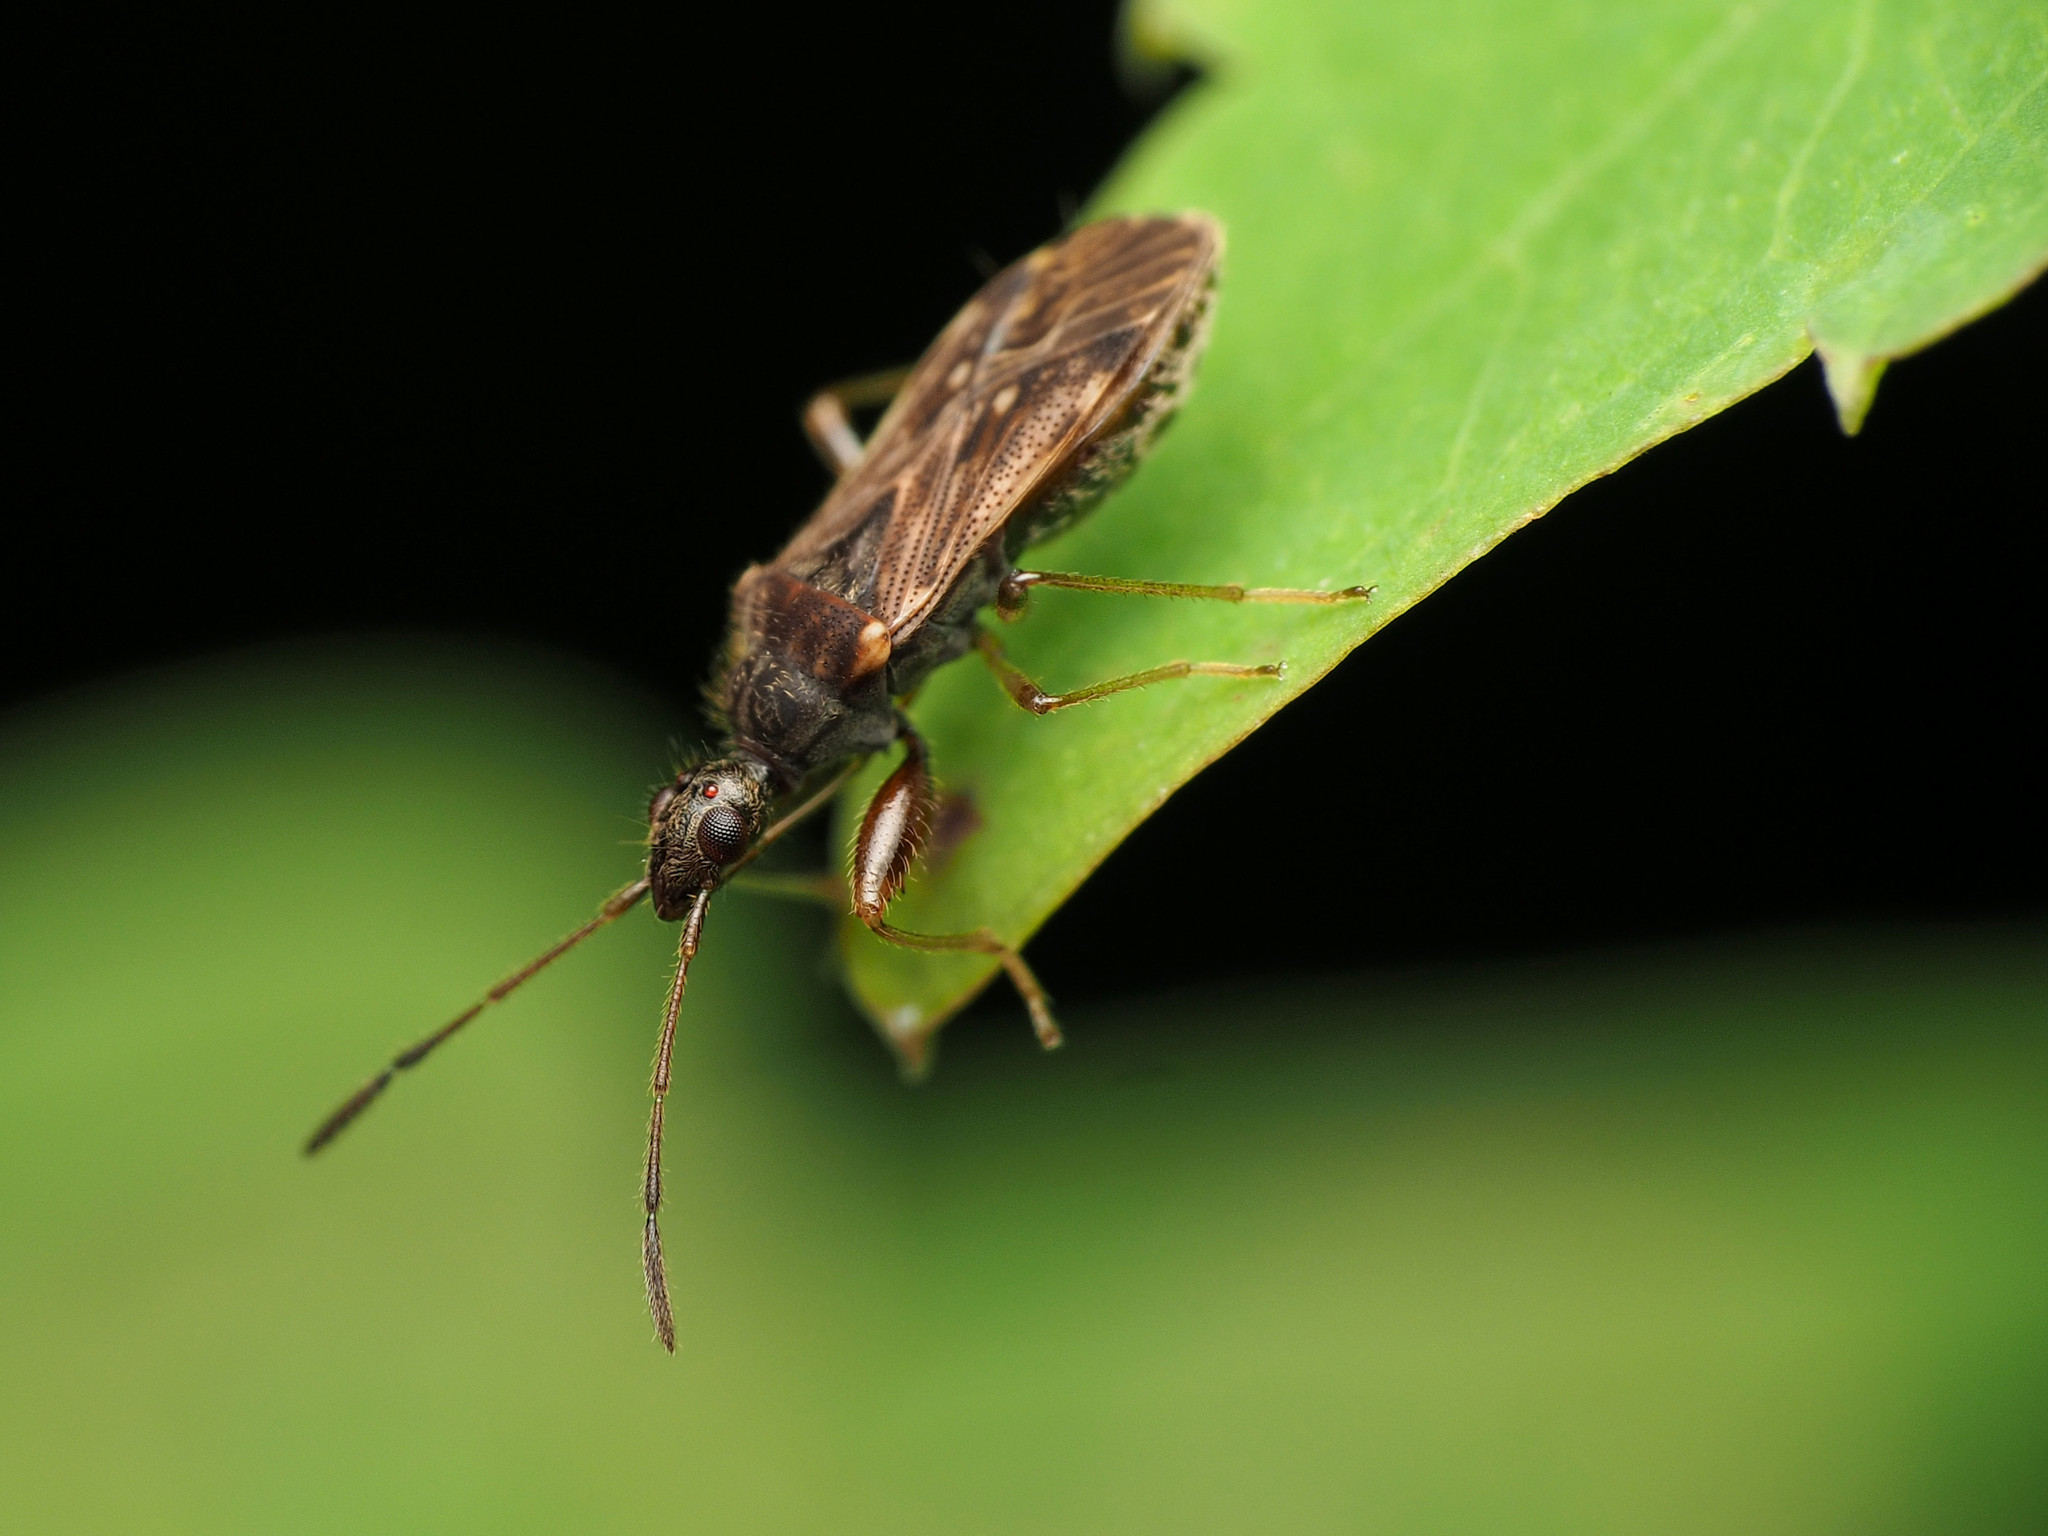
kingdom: Animalia
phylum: Arthropoda
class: Insecta
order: Hemiptera
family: Rhyparochromidae
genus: Heraeus
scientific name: Heraeus plebejus
